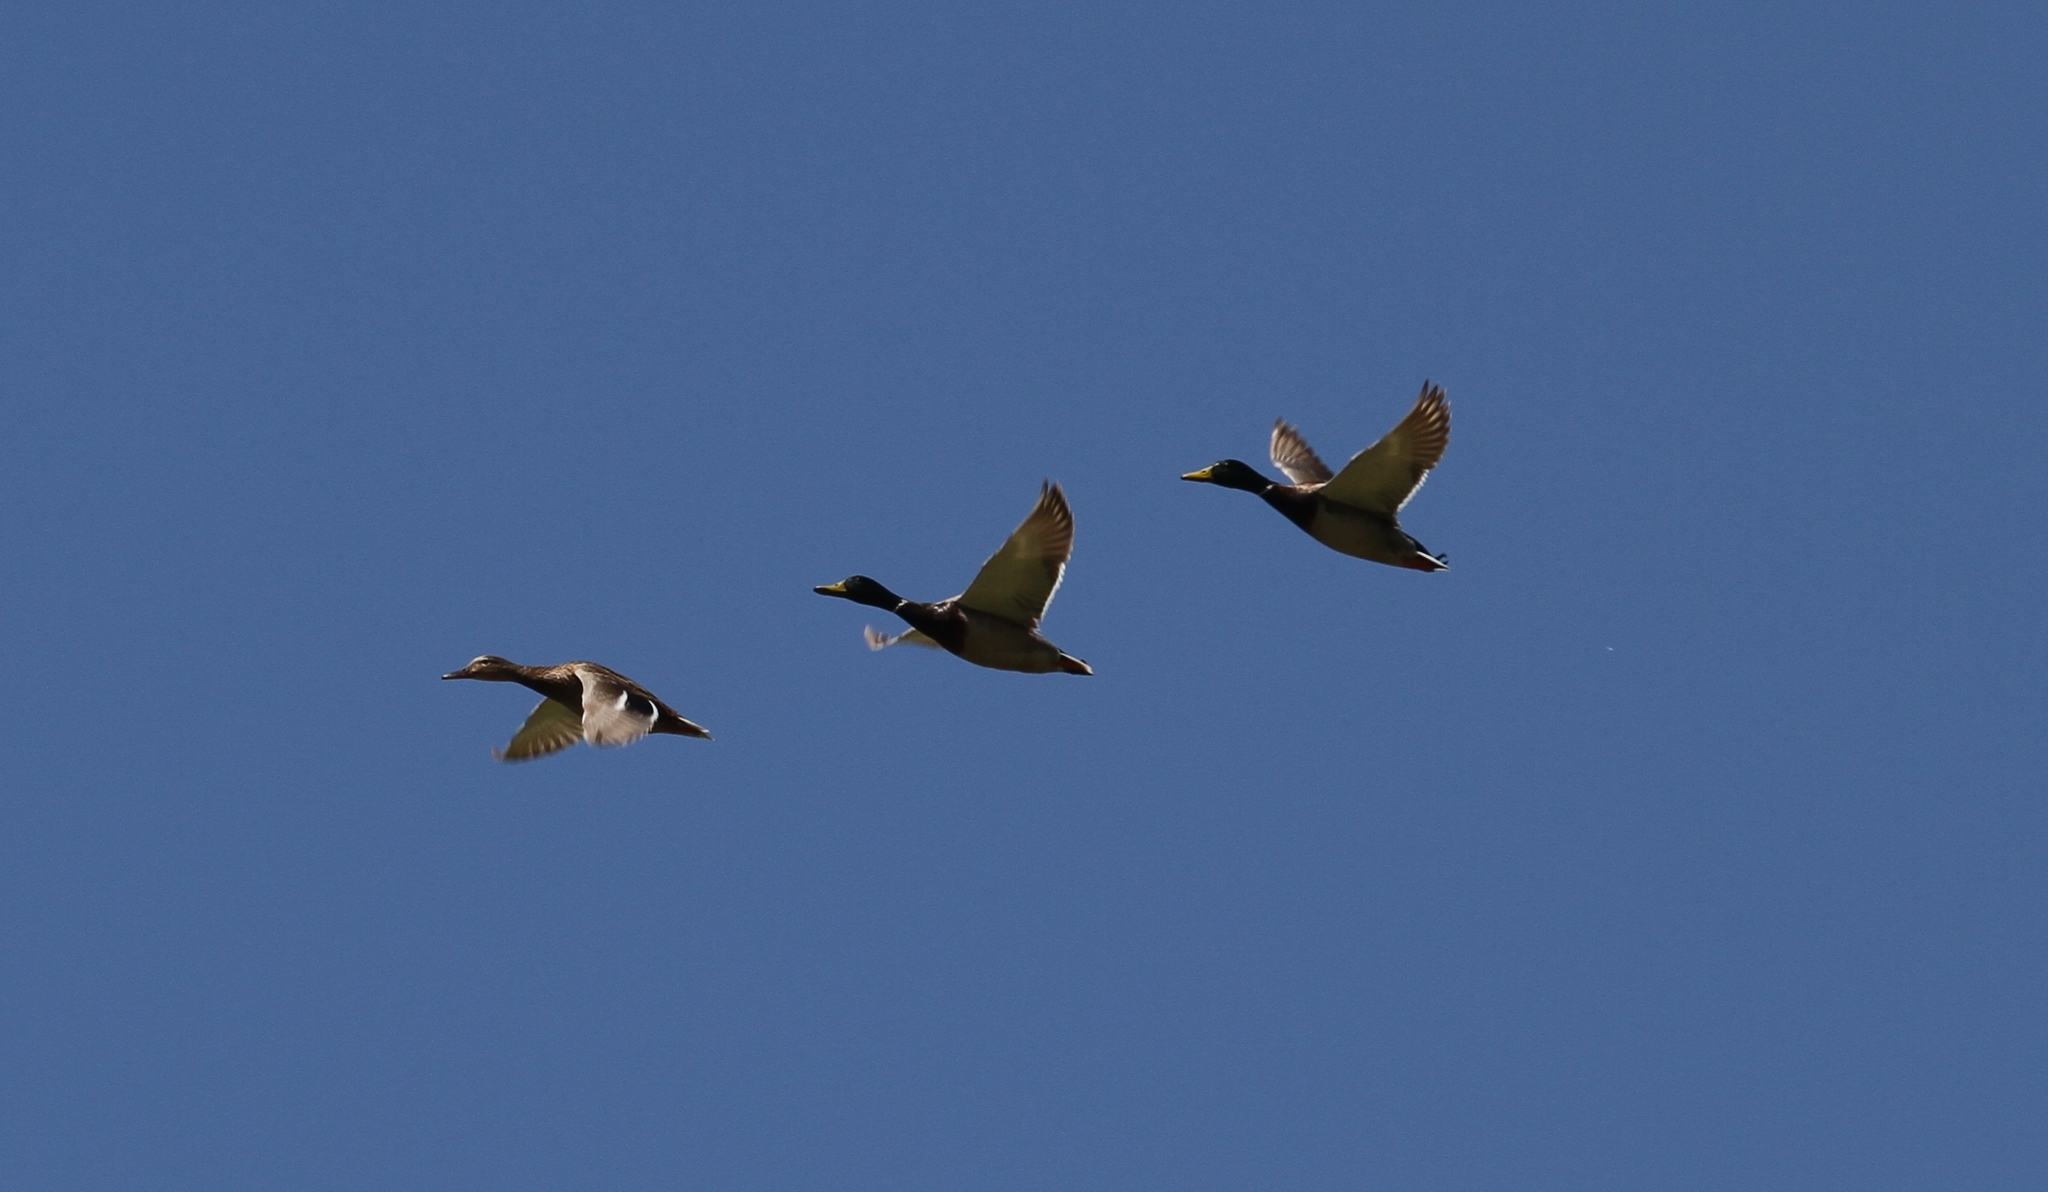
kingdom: Animalia
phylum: Chordata
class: Aves
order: Anseriformes
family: Anatidae
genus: Anas
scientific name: Anas platyrhynchos
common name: Mallard
